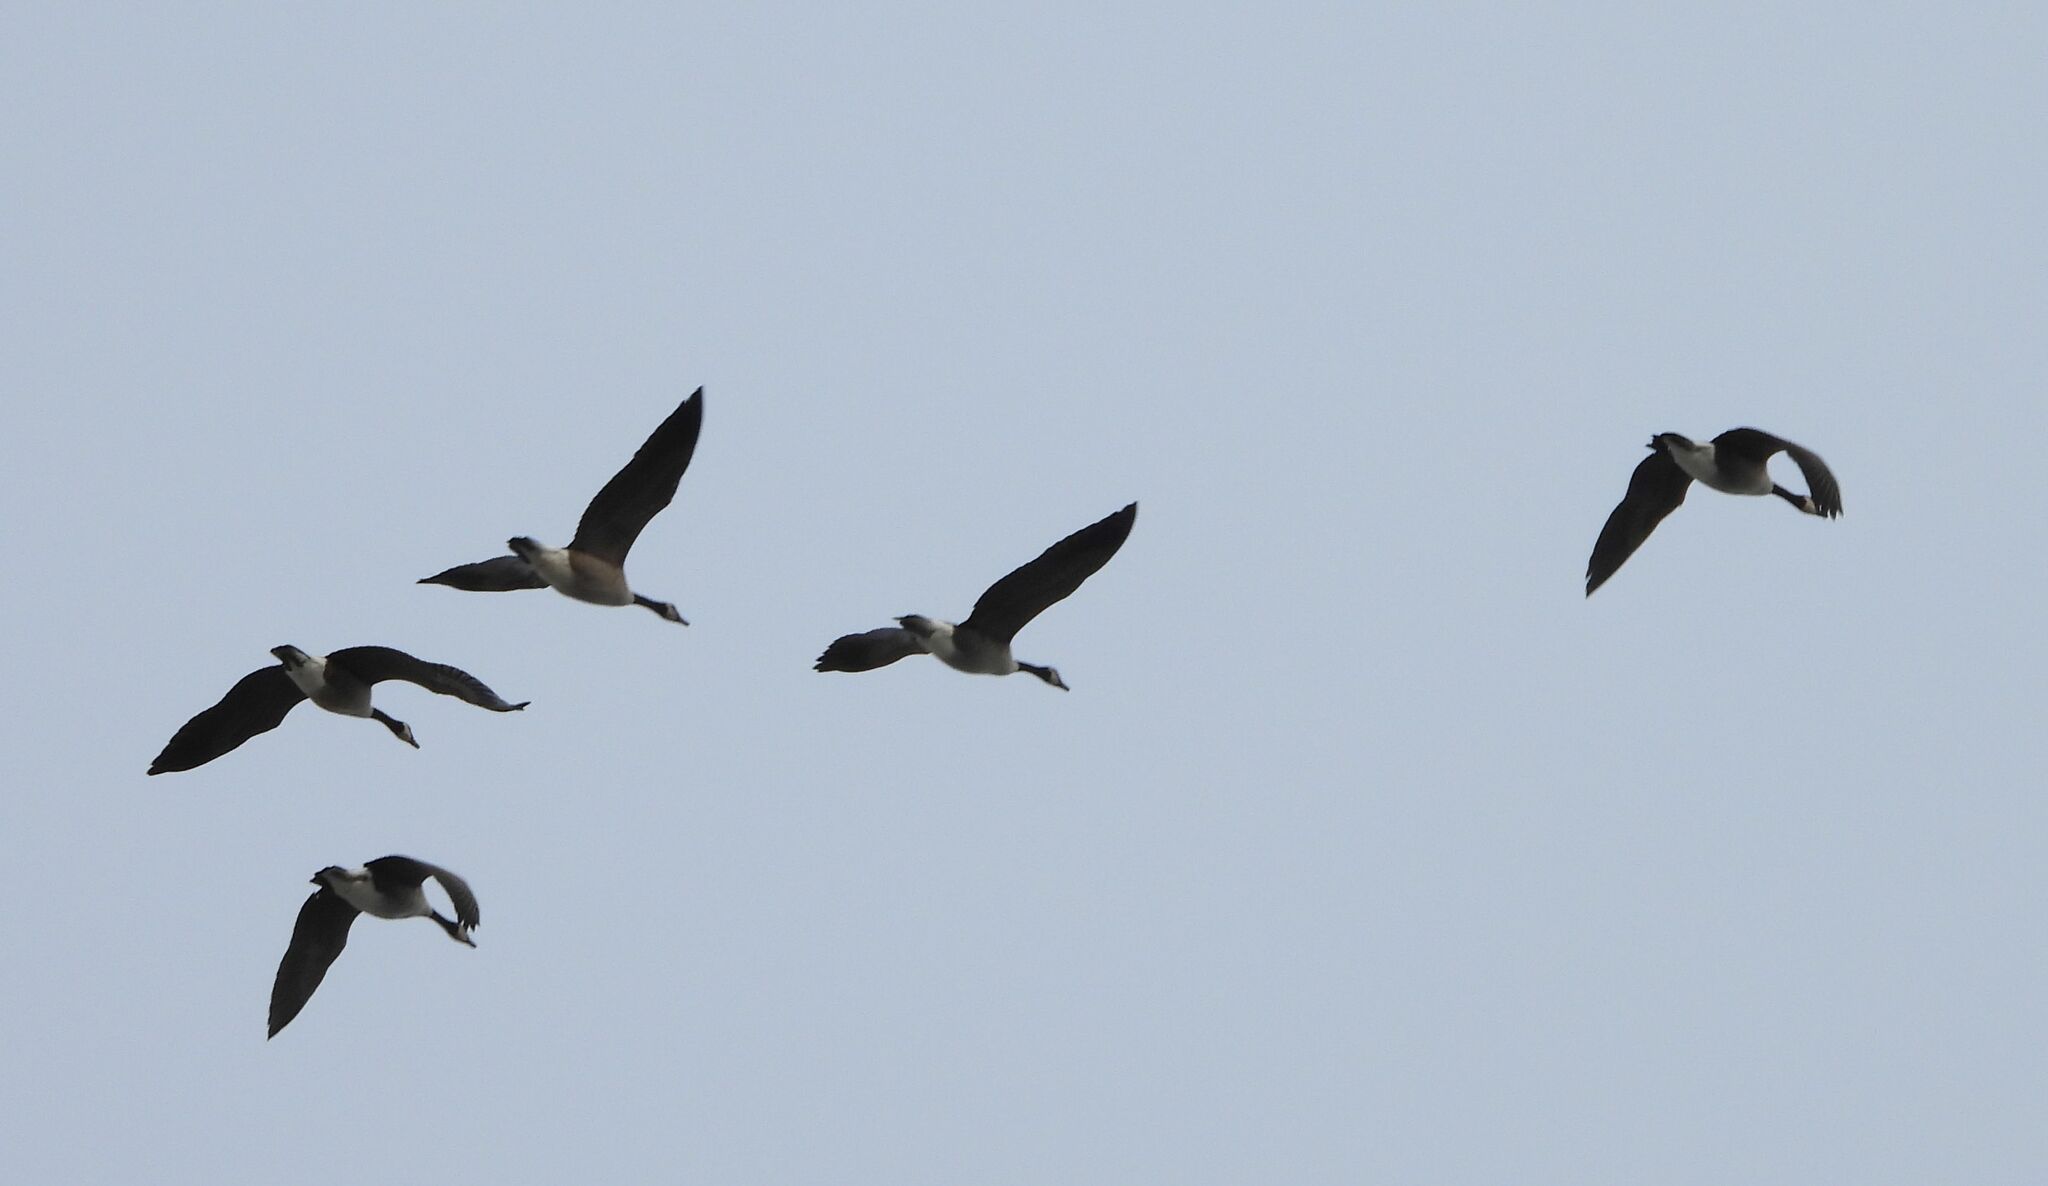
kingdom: Animalia
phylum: Chordata
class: Aves
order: Anseriformes
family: Anatidae
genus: Branta
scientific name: Branta canadensis
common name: Canada goose
